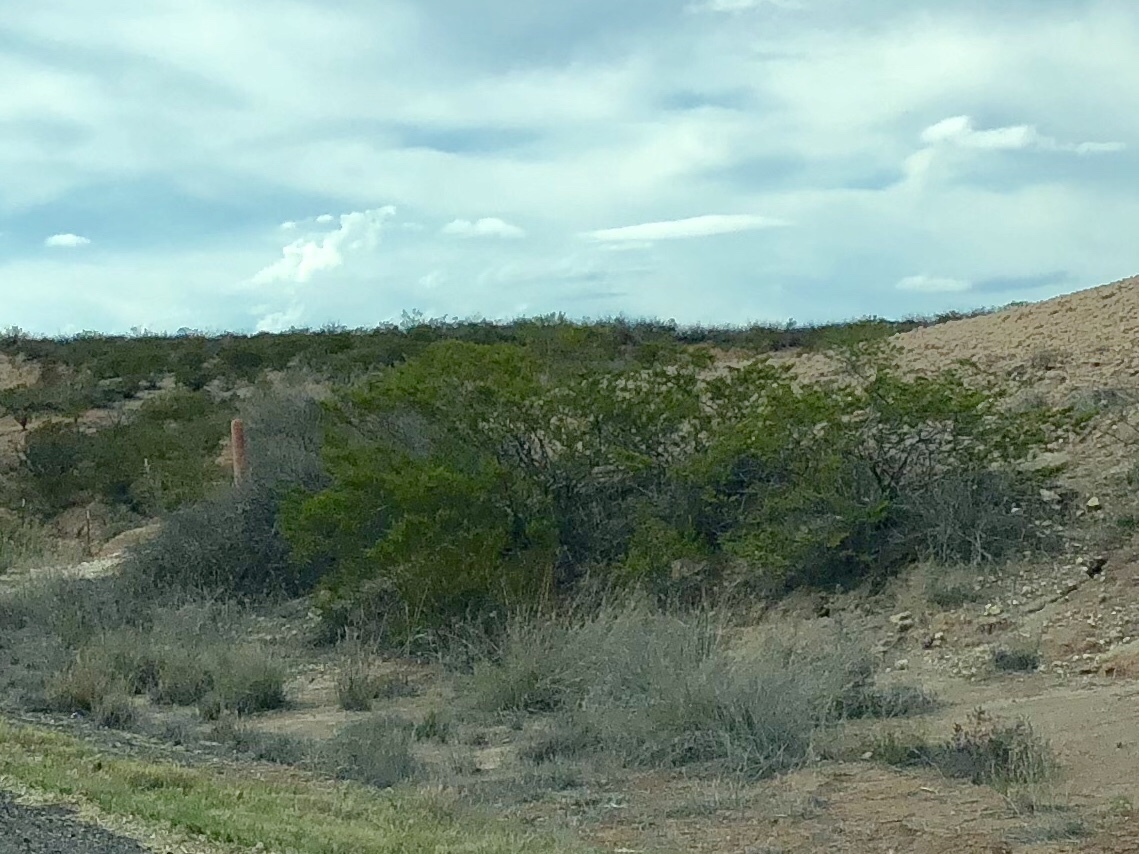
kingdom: Plantae
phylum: Tracheophyta
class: Magnoliopsida
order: Zygophyllales
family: Zygophyllaceae
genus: Larrea
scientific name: Larrea tridentata
